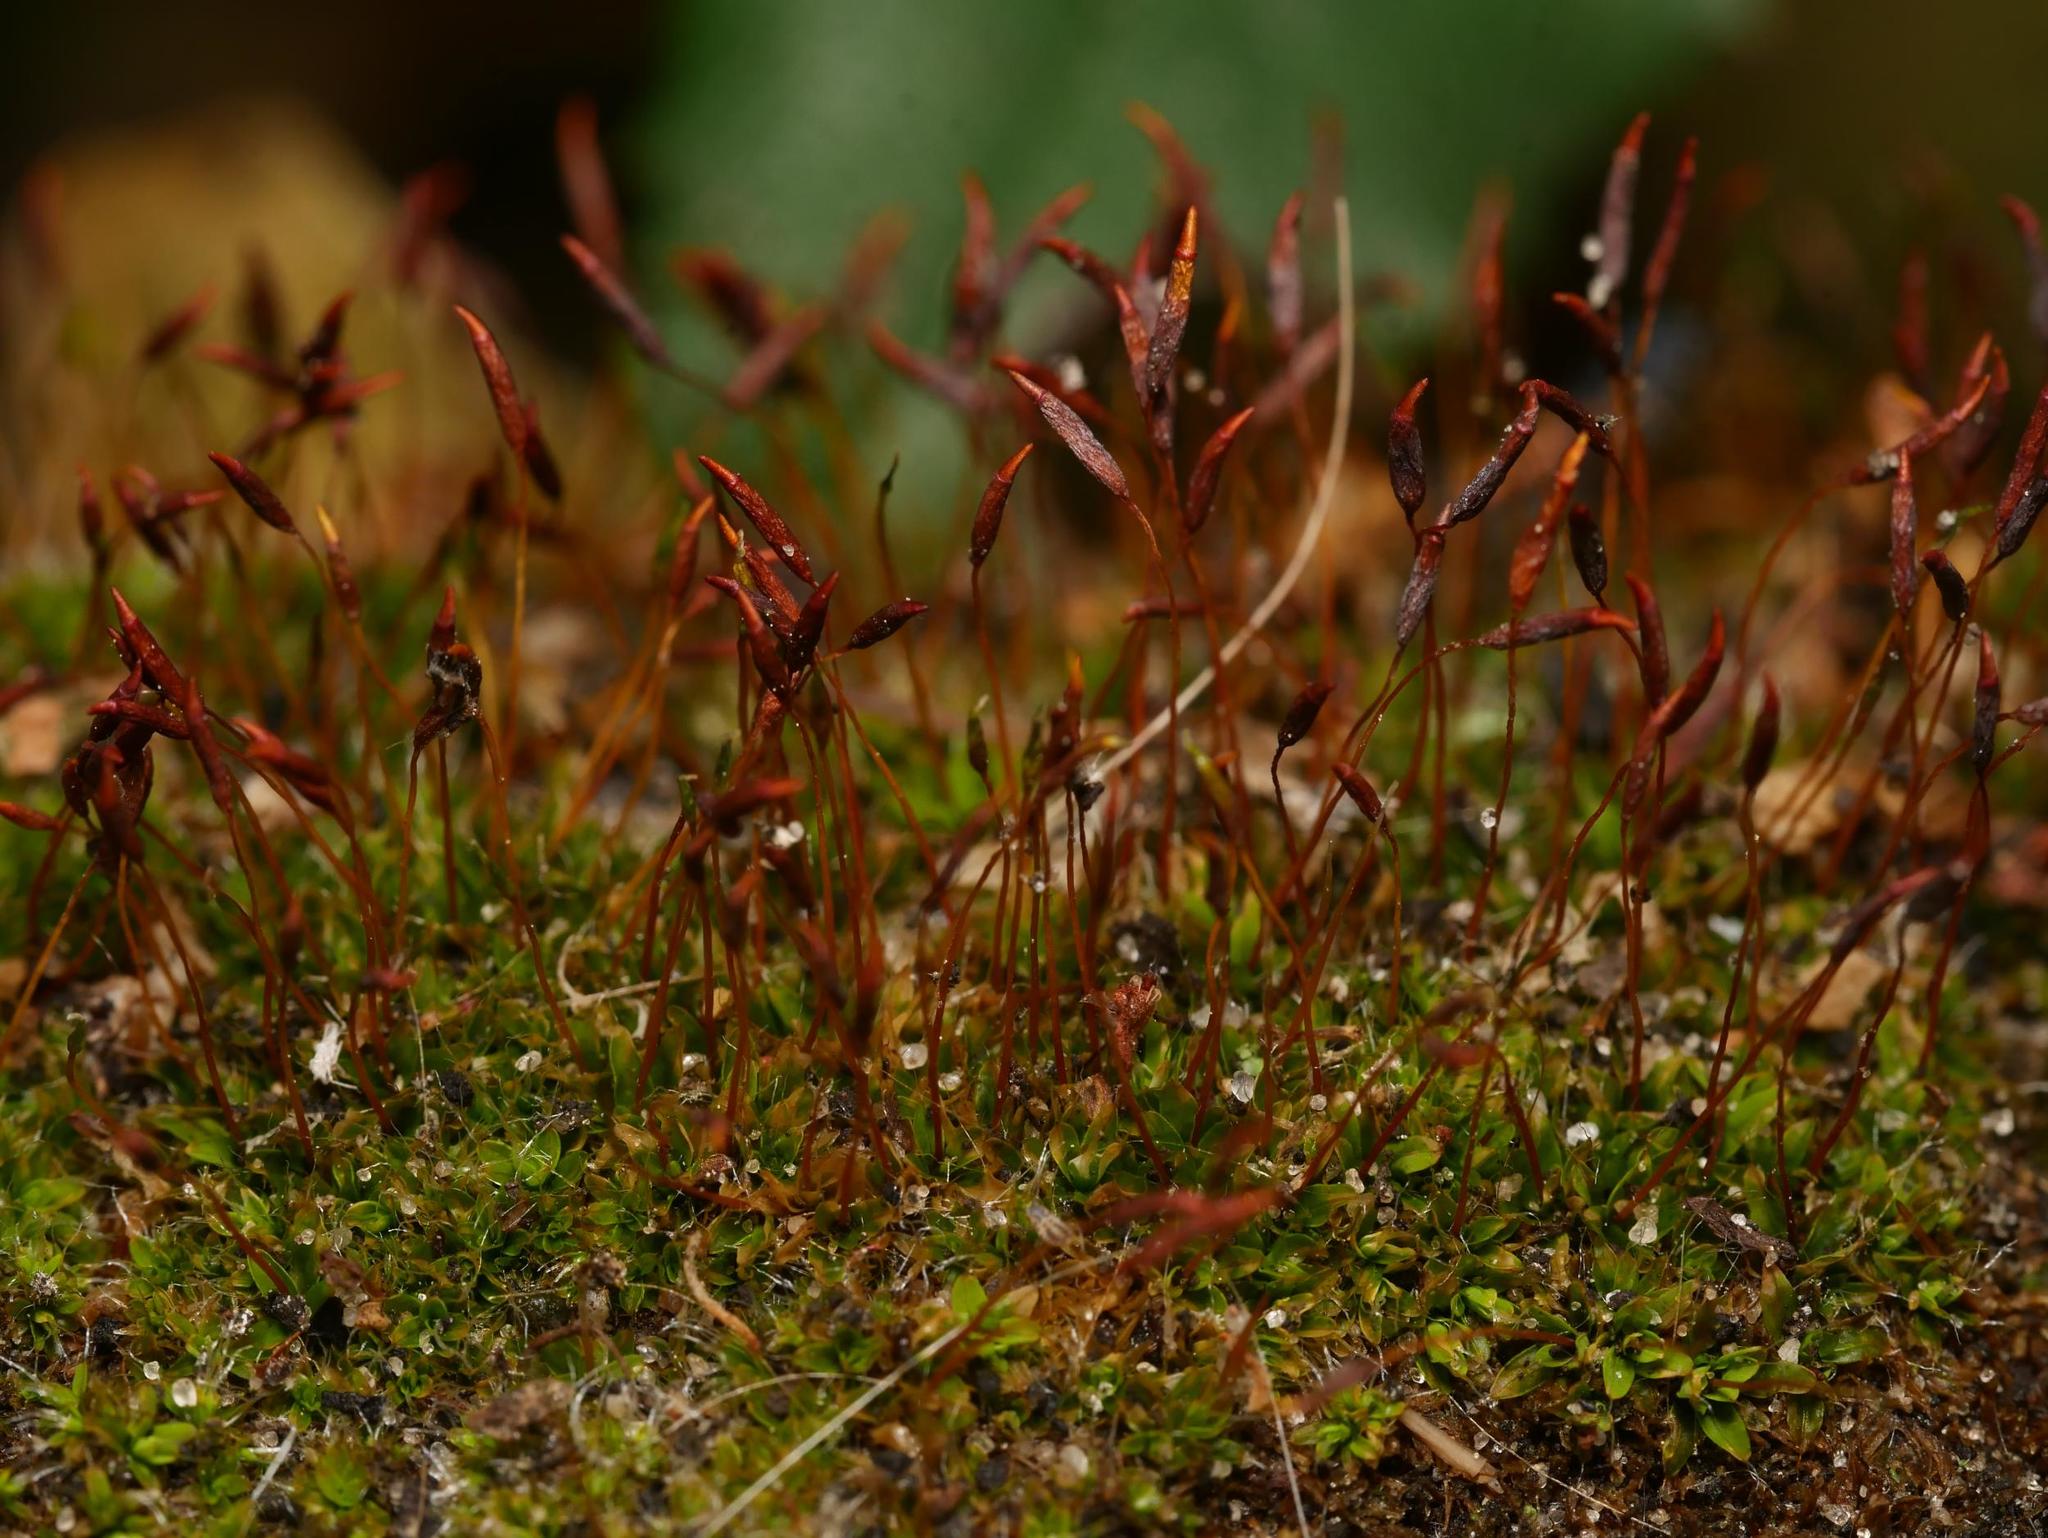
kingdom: Plantae
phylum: Bryophyta
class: Bryopsida
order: Pottiales
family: Pottiaceae
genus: Tortula
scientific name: Tortula muralis
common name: Wall screw-moss
